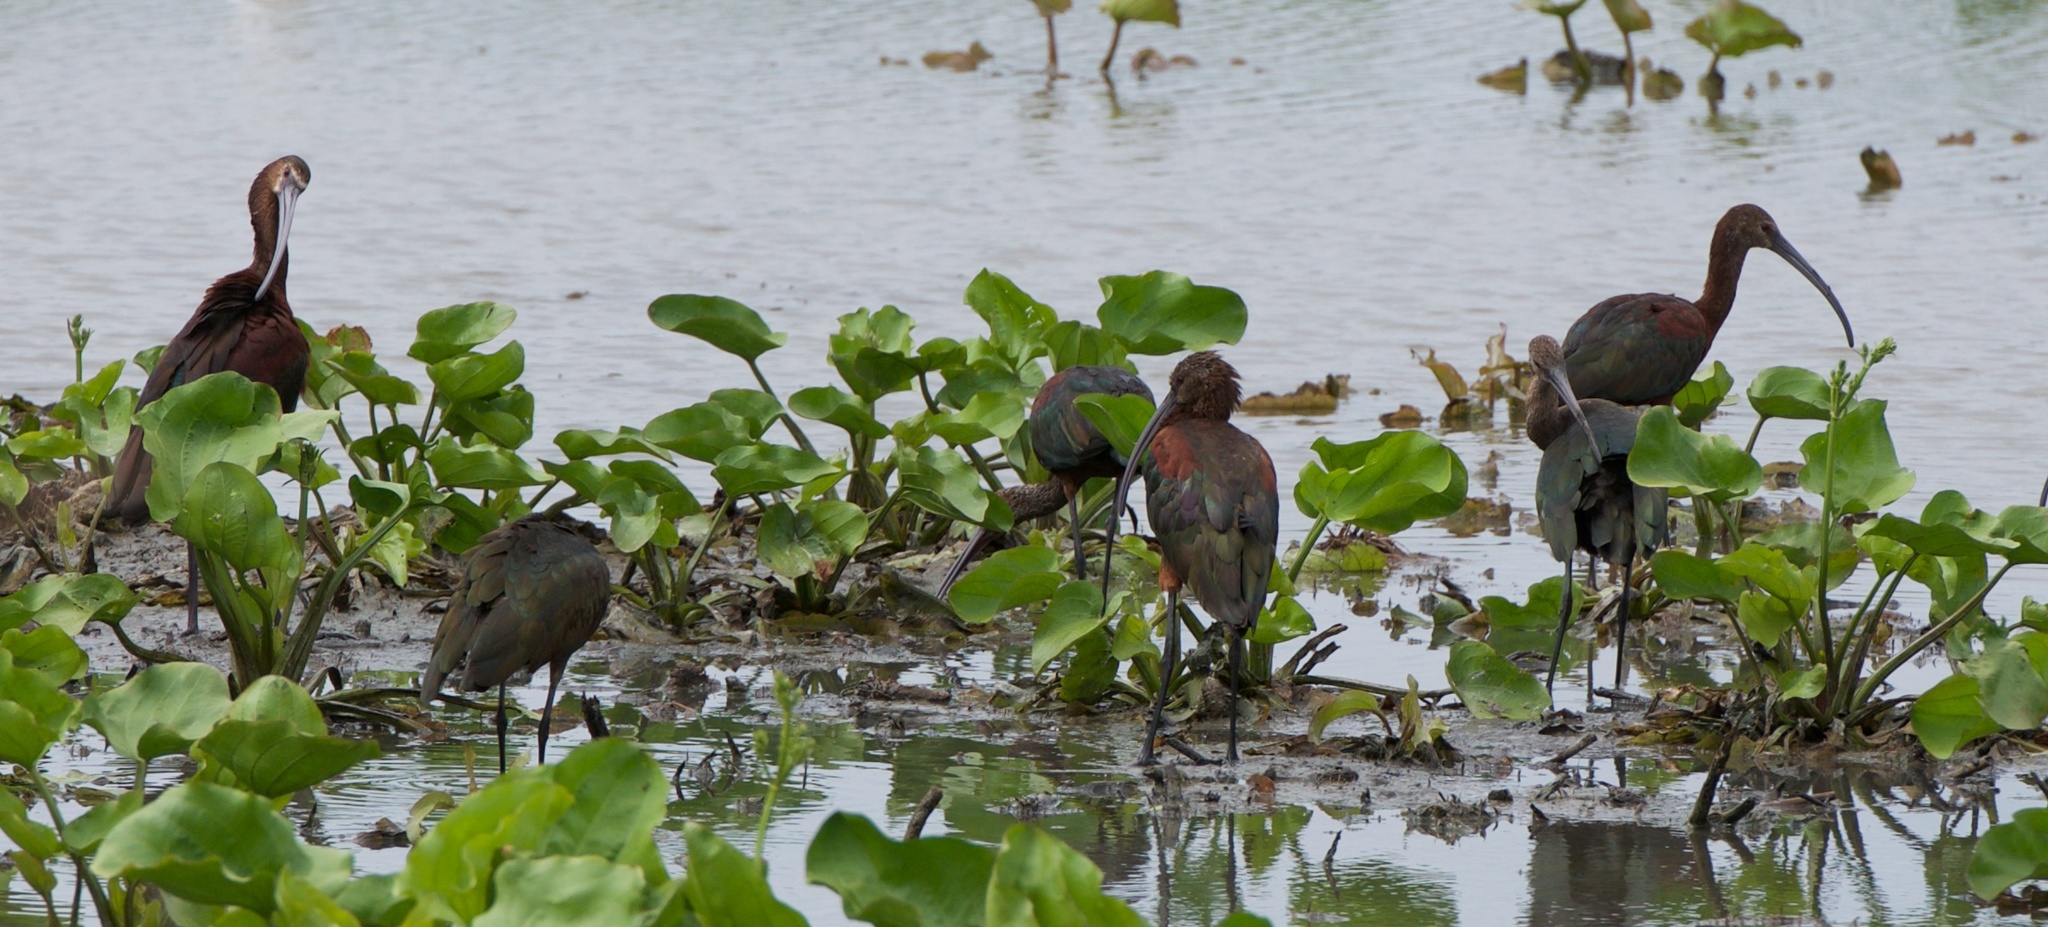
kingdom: Animalia
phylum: Chordata
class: Aves
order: Pelecaniformes
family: Threskiornithidae
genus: Plegadis
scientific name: Plegadis chihi
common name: White-faced ibis
